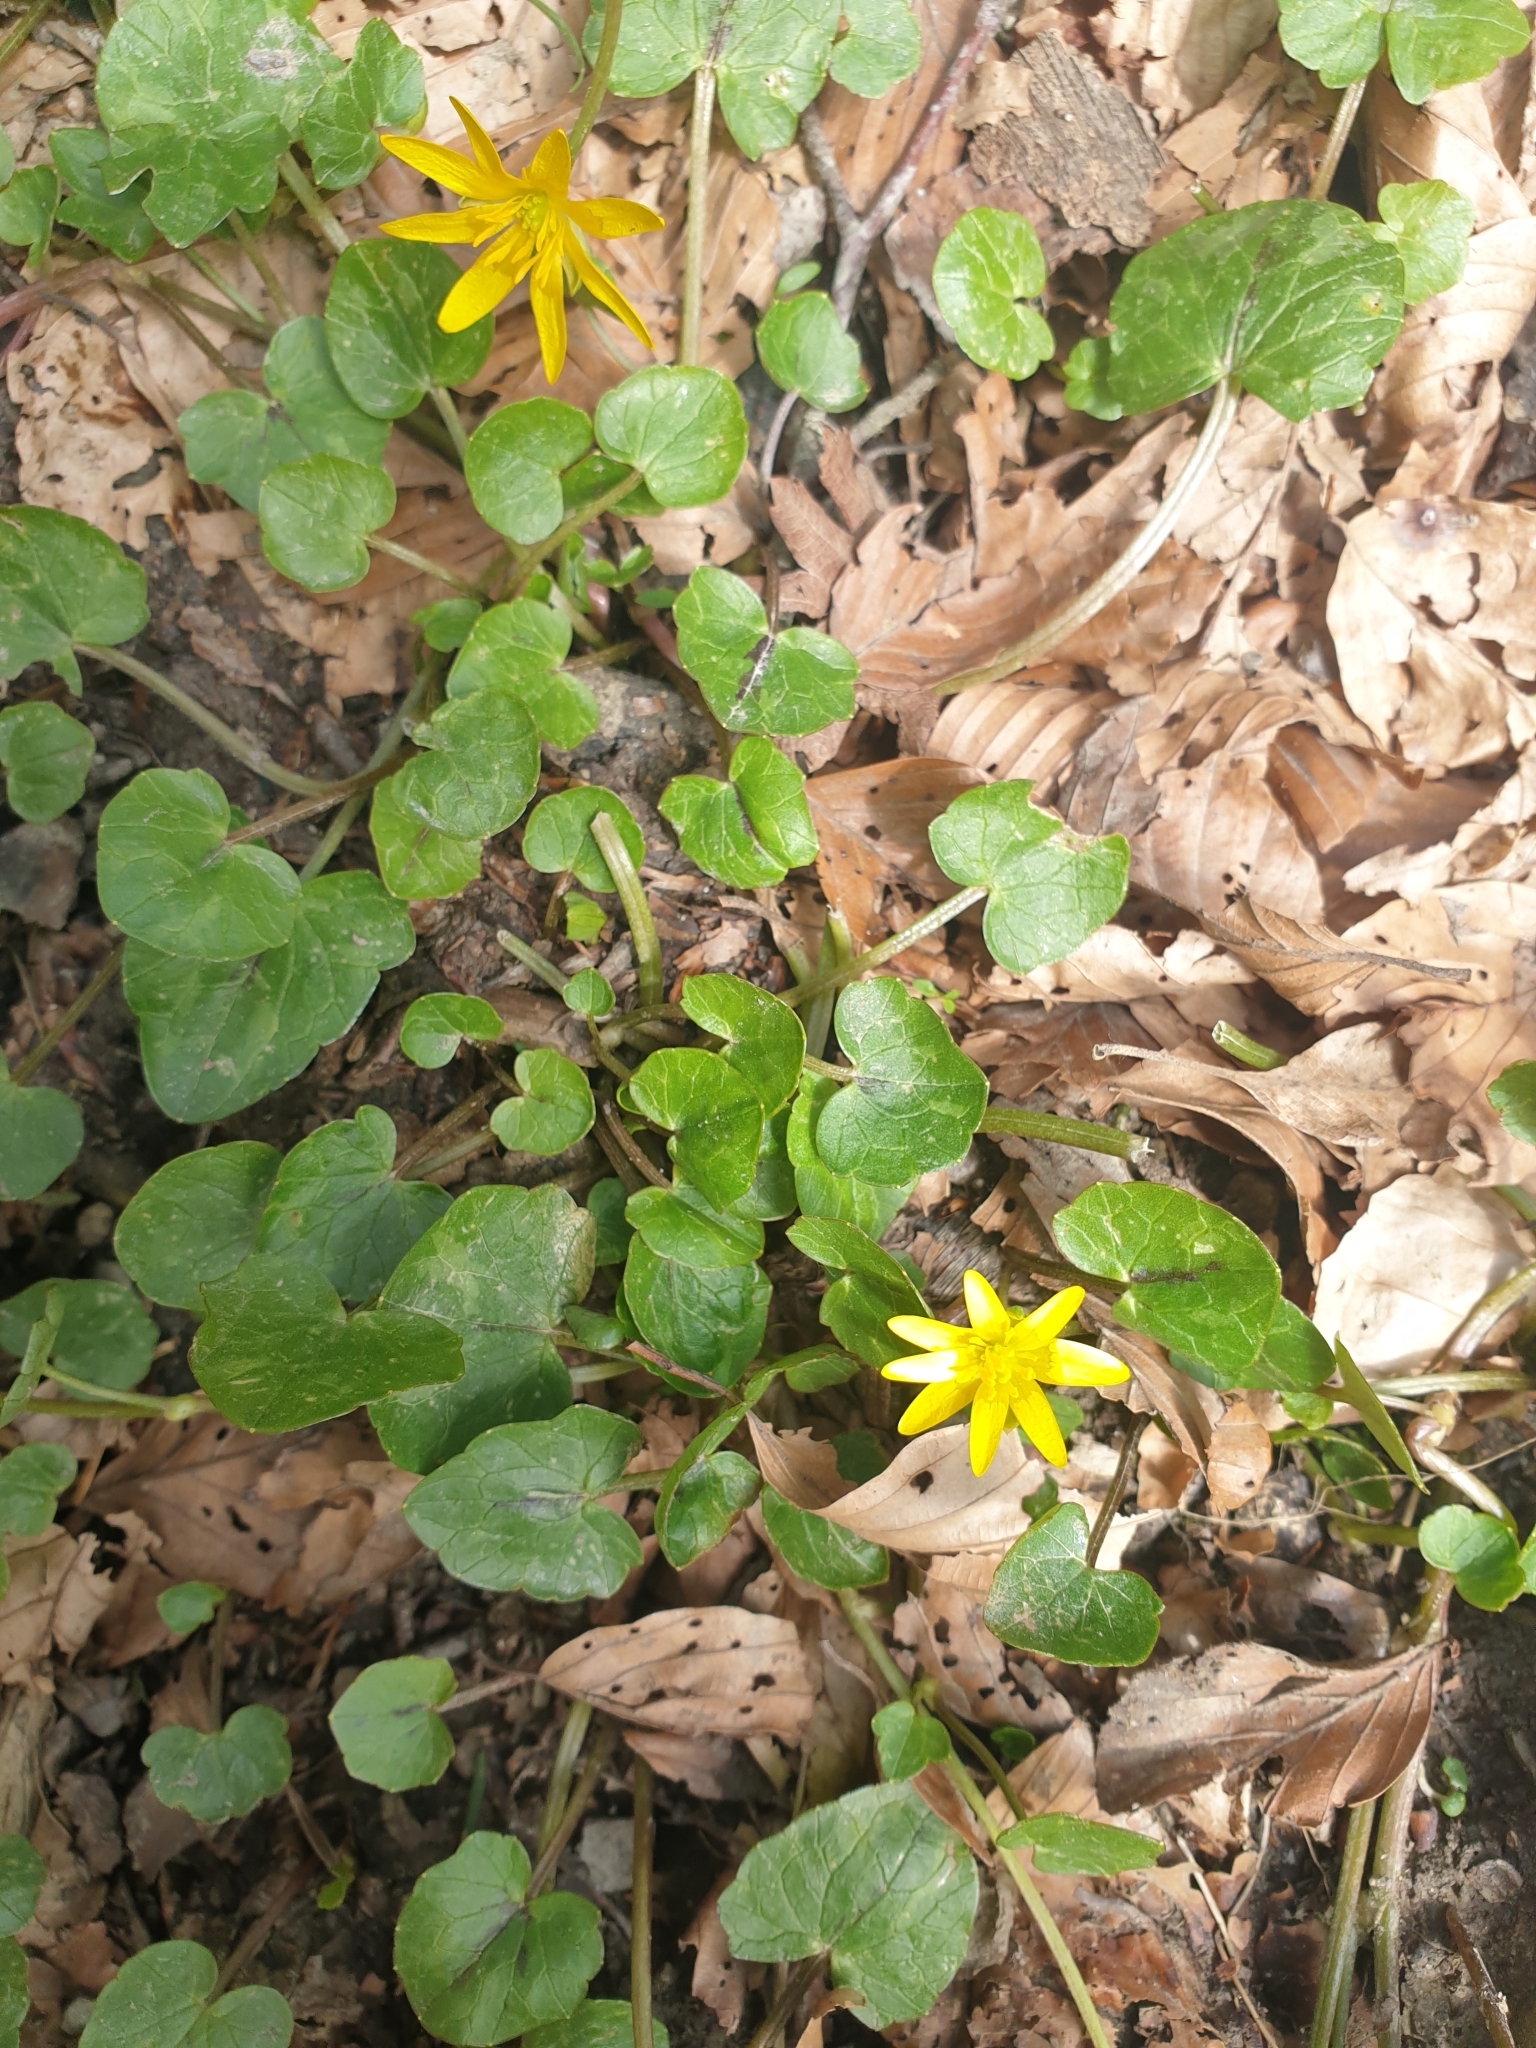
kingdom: Plantae
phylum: Tracheophyta
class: Magnoliopsida
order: Ranunculales
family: Ranunculaceae
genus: Ficaria
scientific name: Ficaria verna
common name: Lesser celandine
